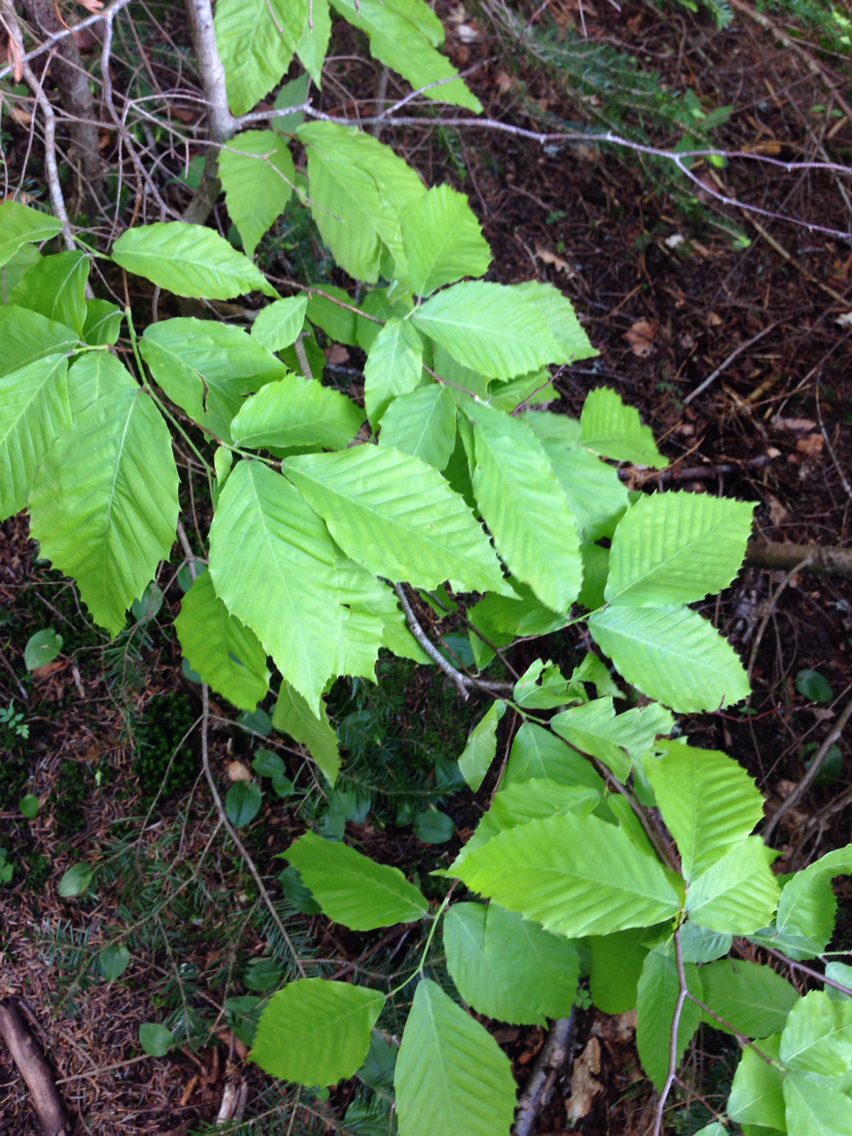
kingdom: Plantae
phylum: Tracheophyta
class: Magnoliopsida
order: Fagales
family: Fagaceae
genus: Fagus
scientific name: Fagus grandifolia
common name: American beech
